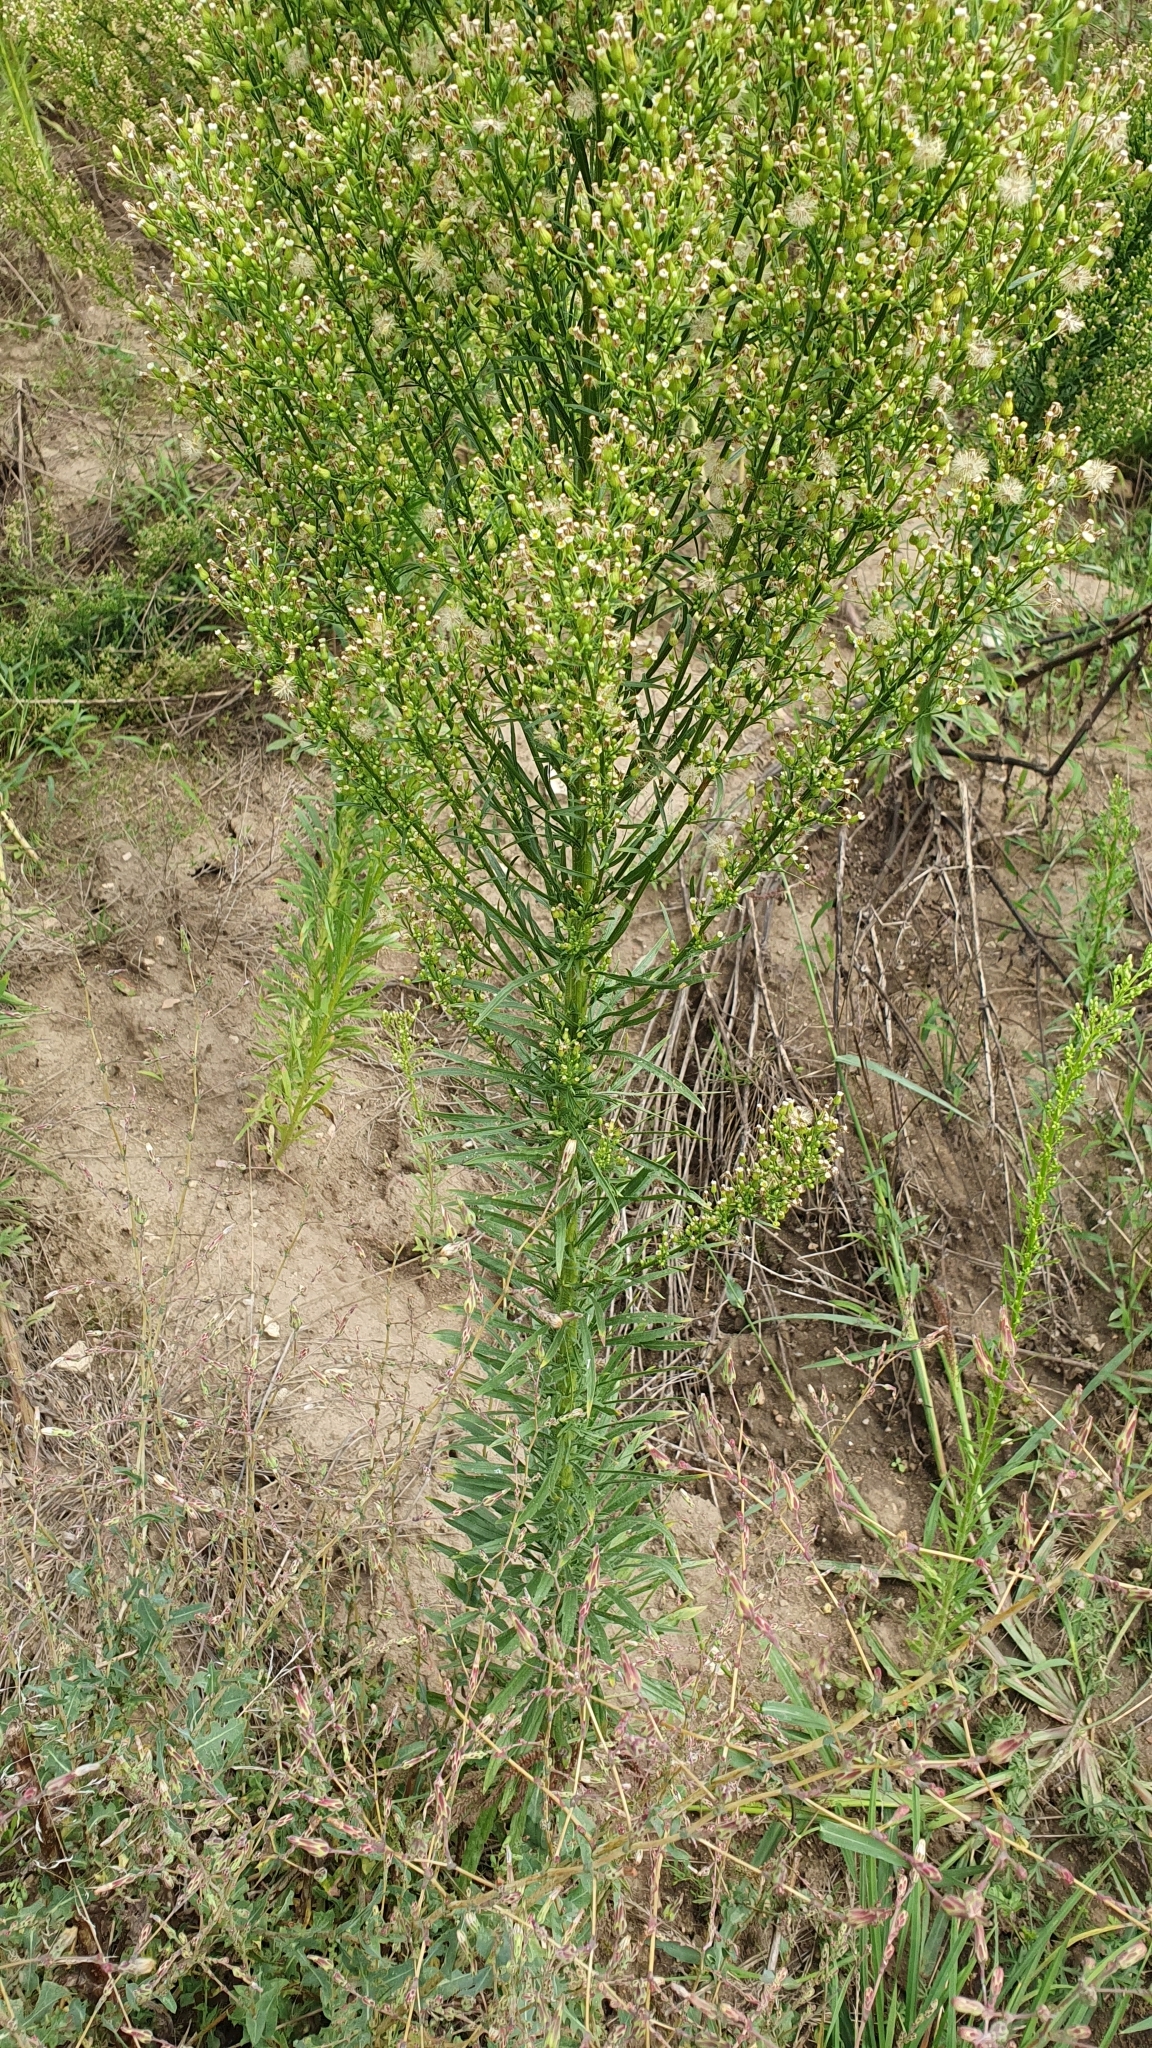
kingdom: Plantae
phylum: Tracheophyta
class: Magnoliopsida
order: Asterales
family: Asteraceae
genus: Erigeron
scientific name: Erigeron canadensis
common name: Canadian fleabane
